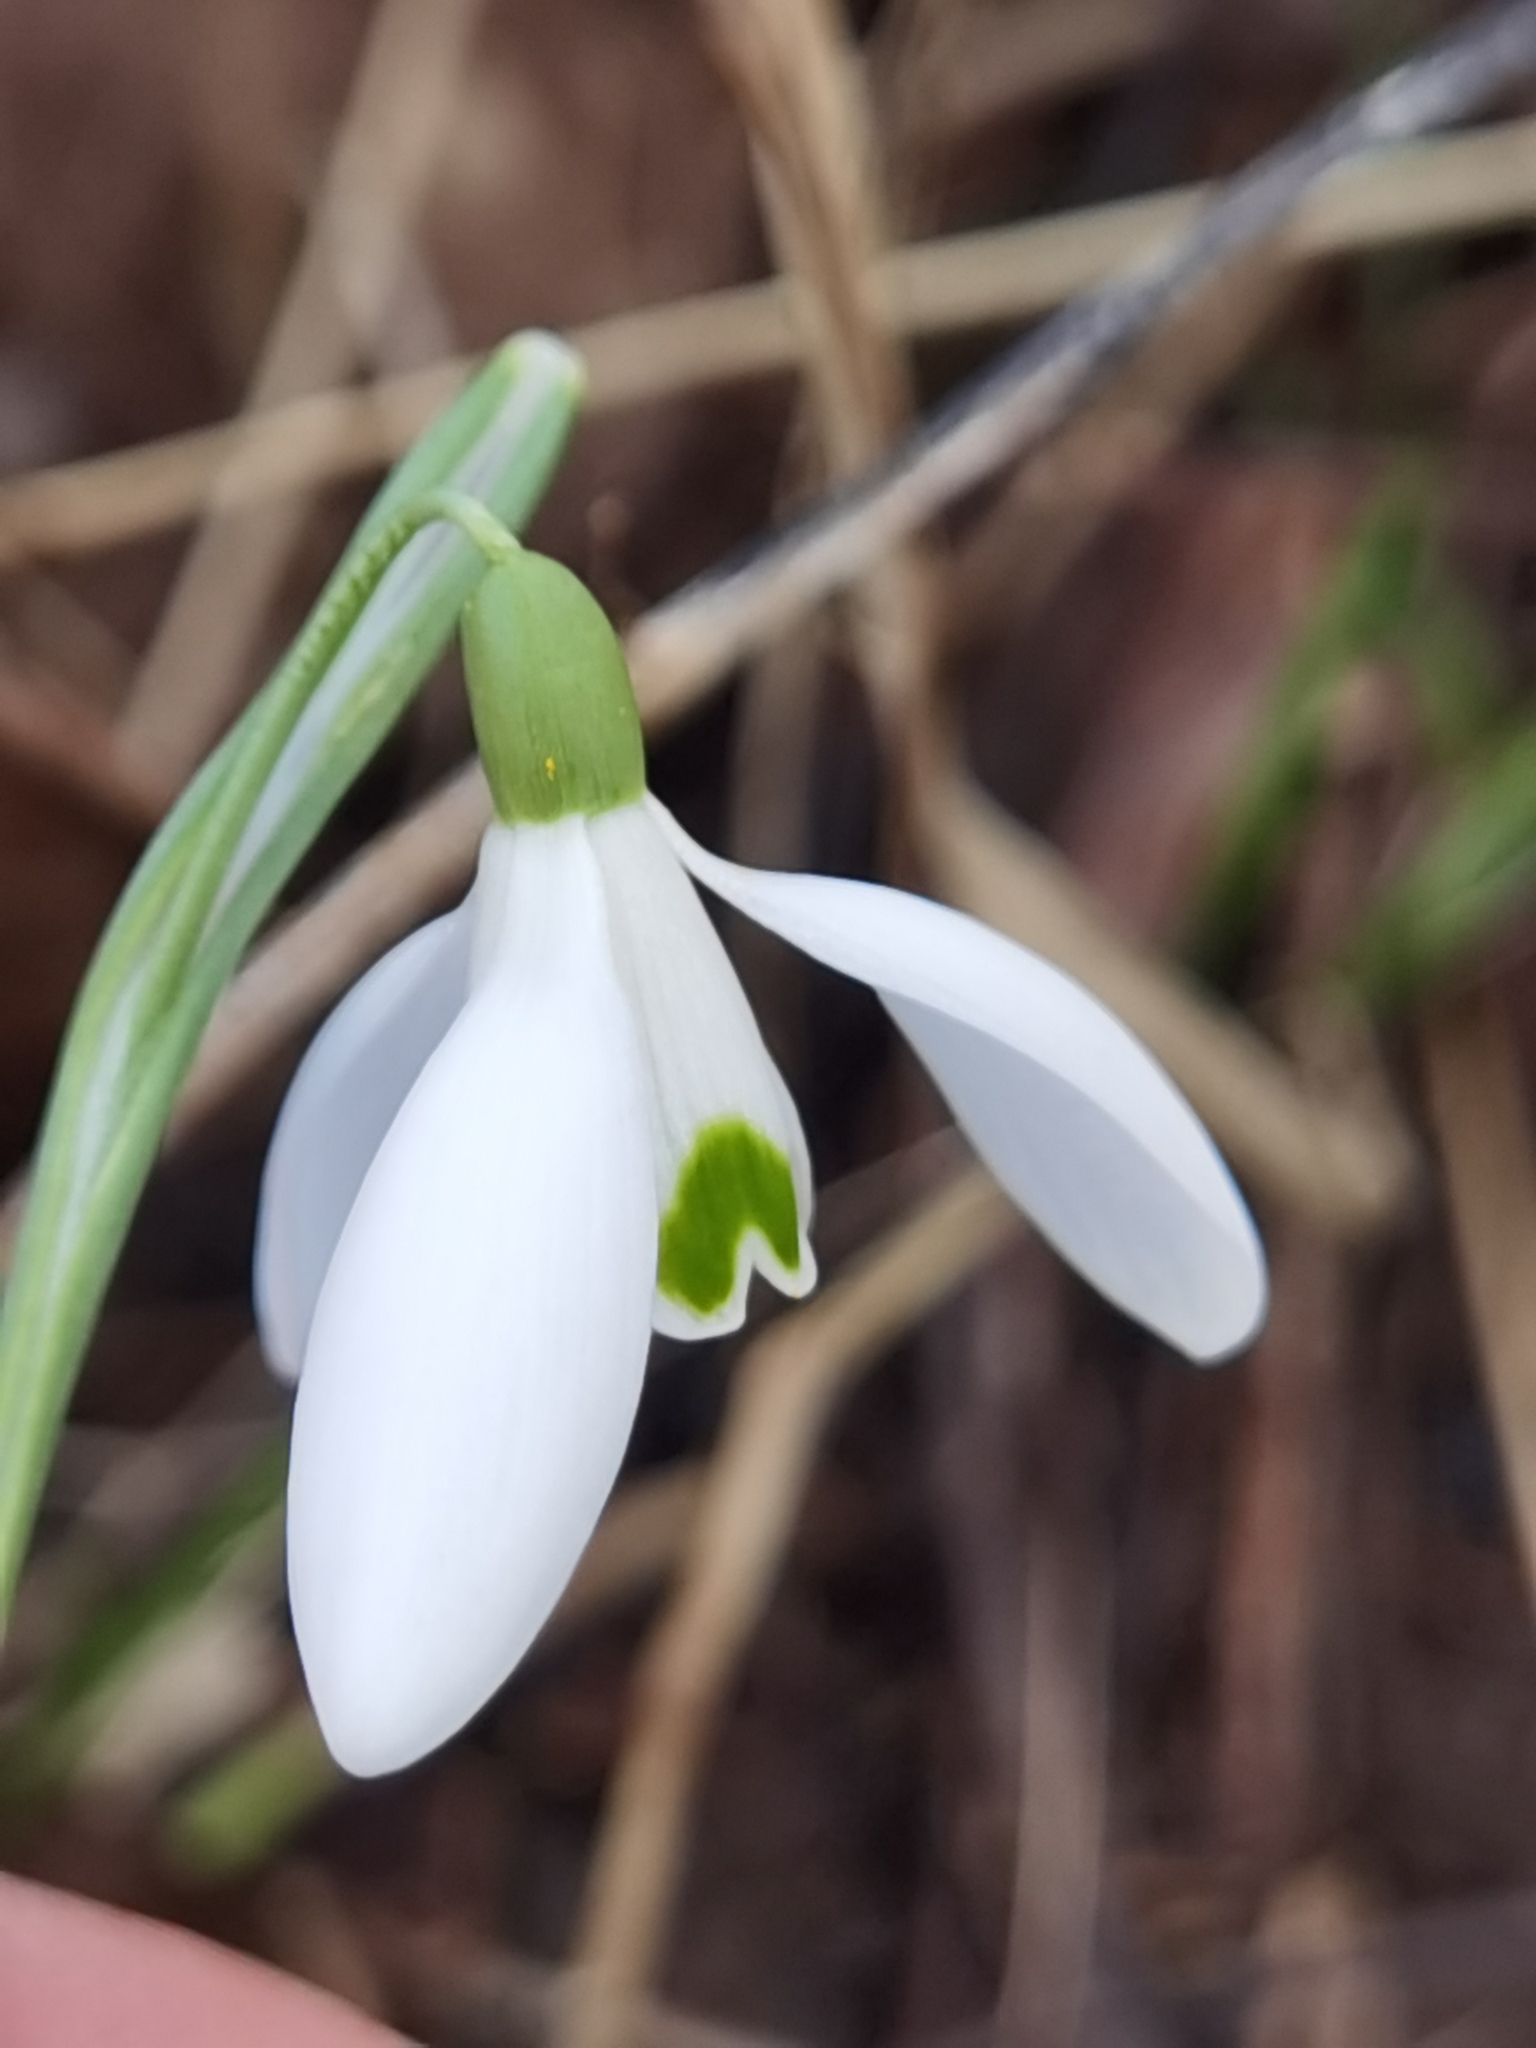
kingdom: Plantae
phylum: Tracheophyta
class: Liliopsida
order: Asparagales
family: Amaryllidaceae
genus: Galanthus
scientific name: Galanthus nivalis
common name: Snowdrop
